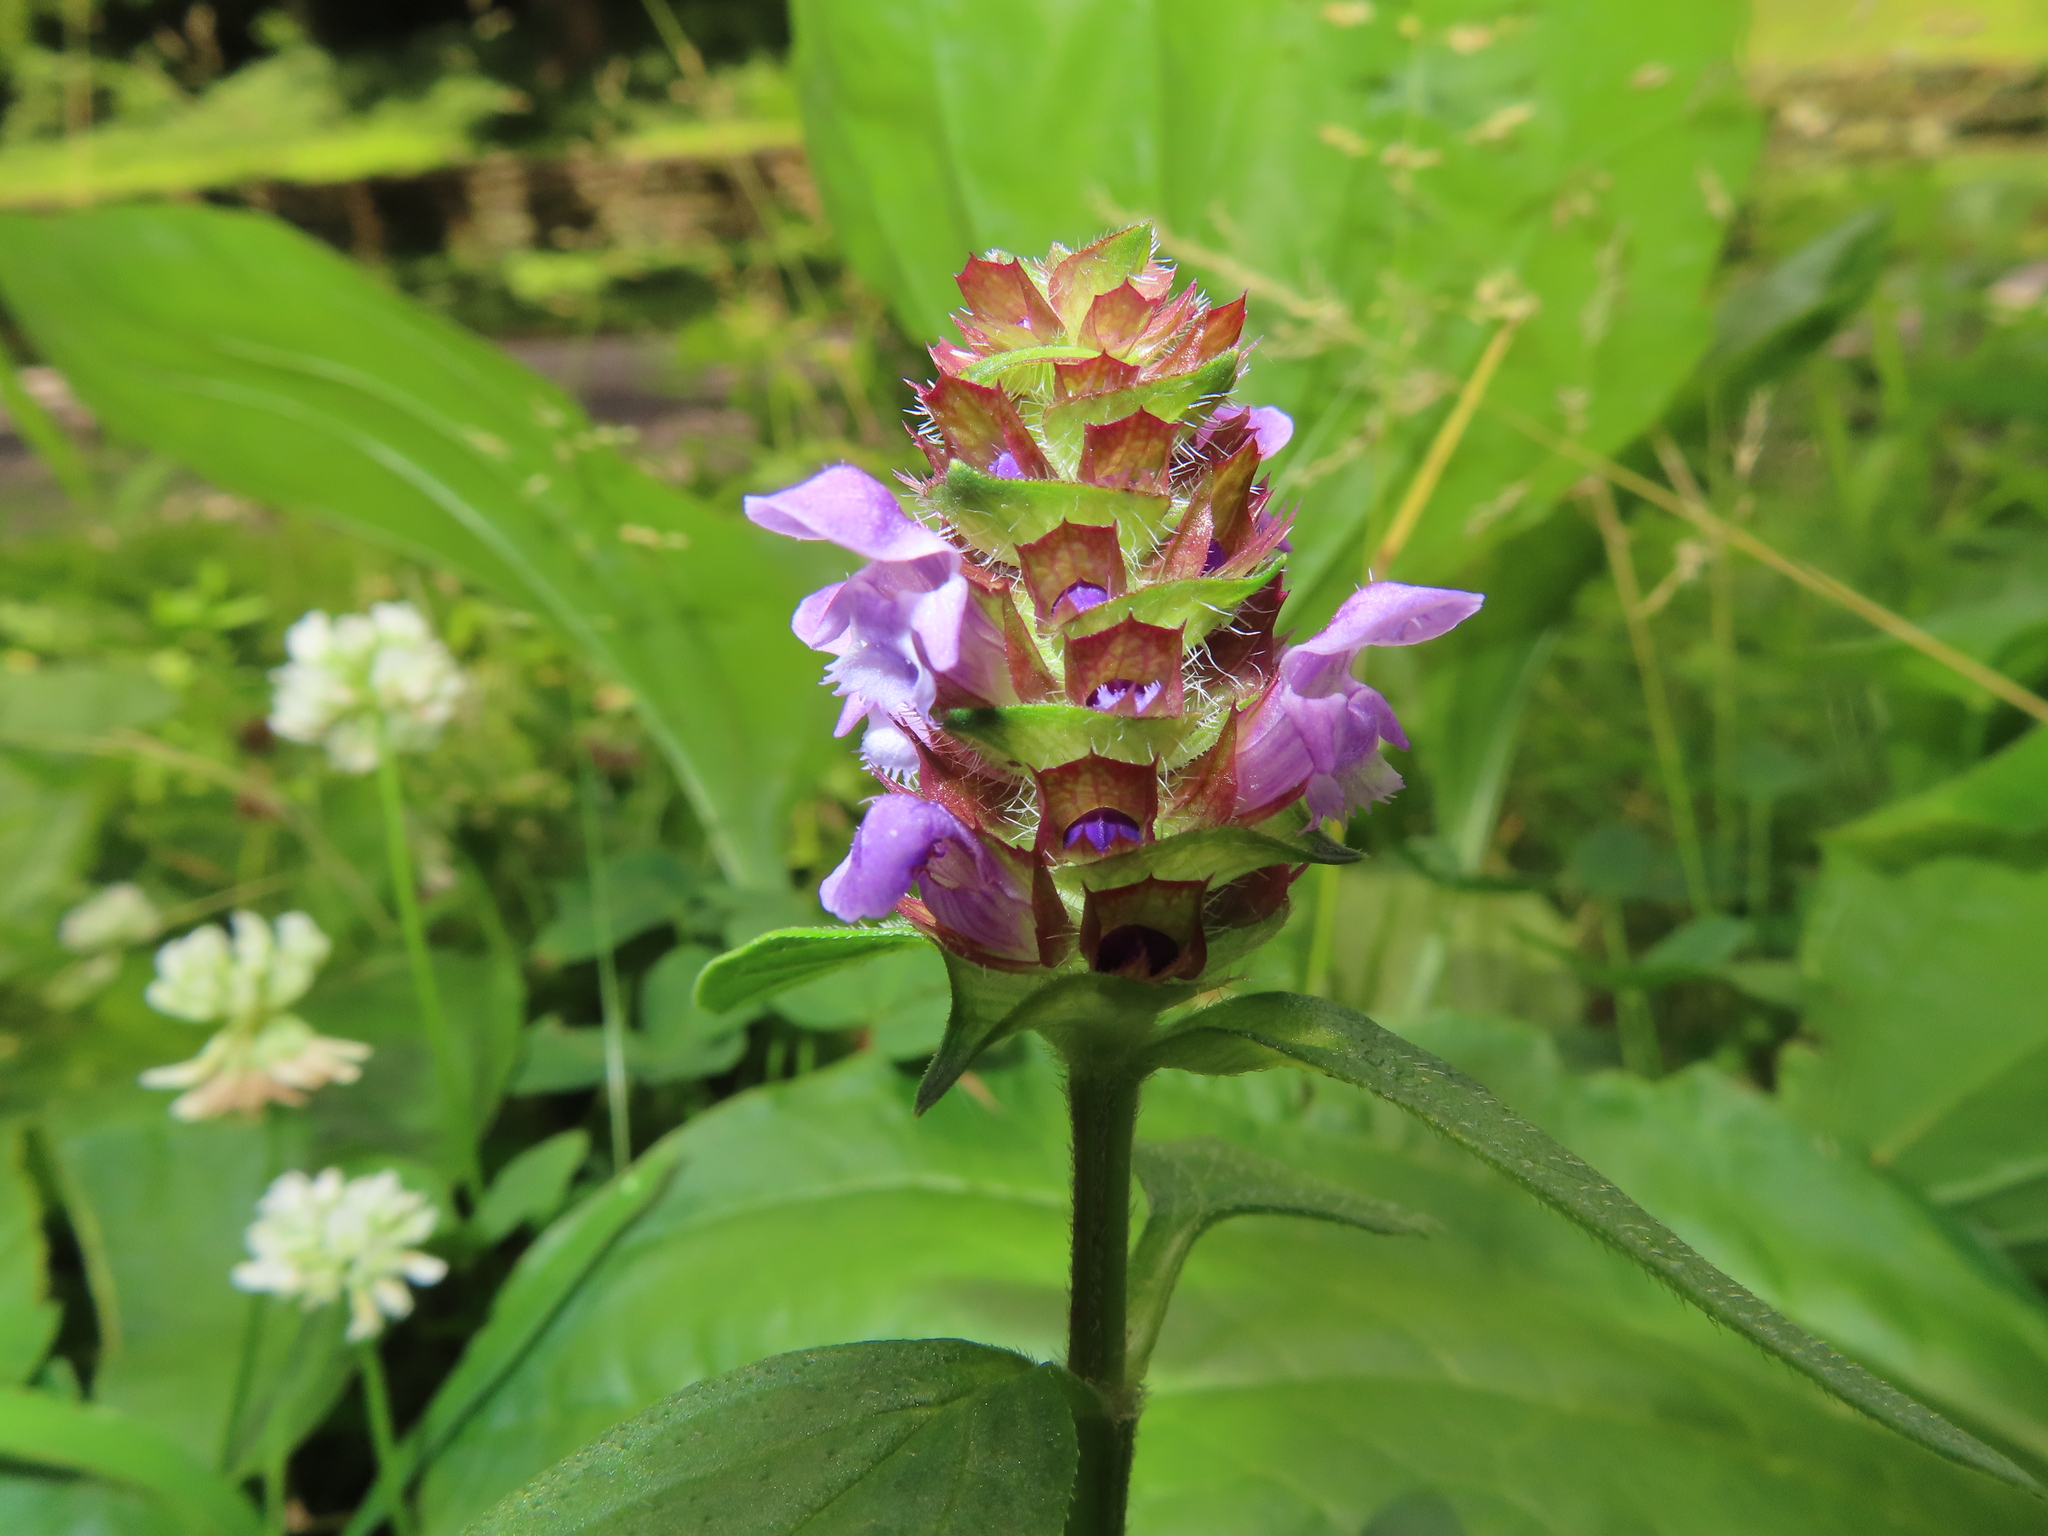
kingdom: Plantae
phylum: Tracheophyta
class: Magnoliopsida
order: Lamiales
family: Lamiaceae
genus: Prunella
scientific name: Prunella vulgaris
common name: Heal-all
